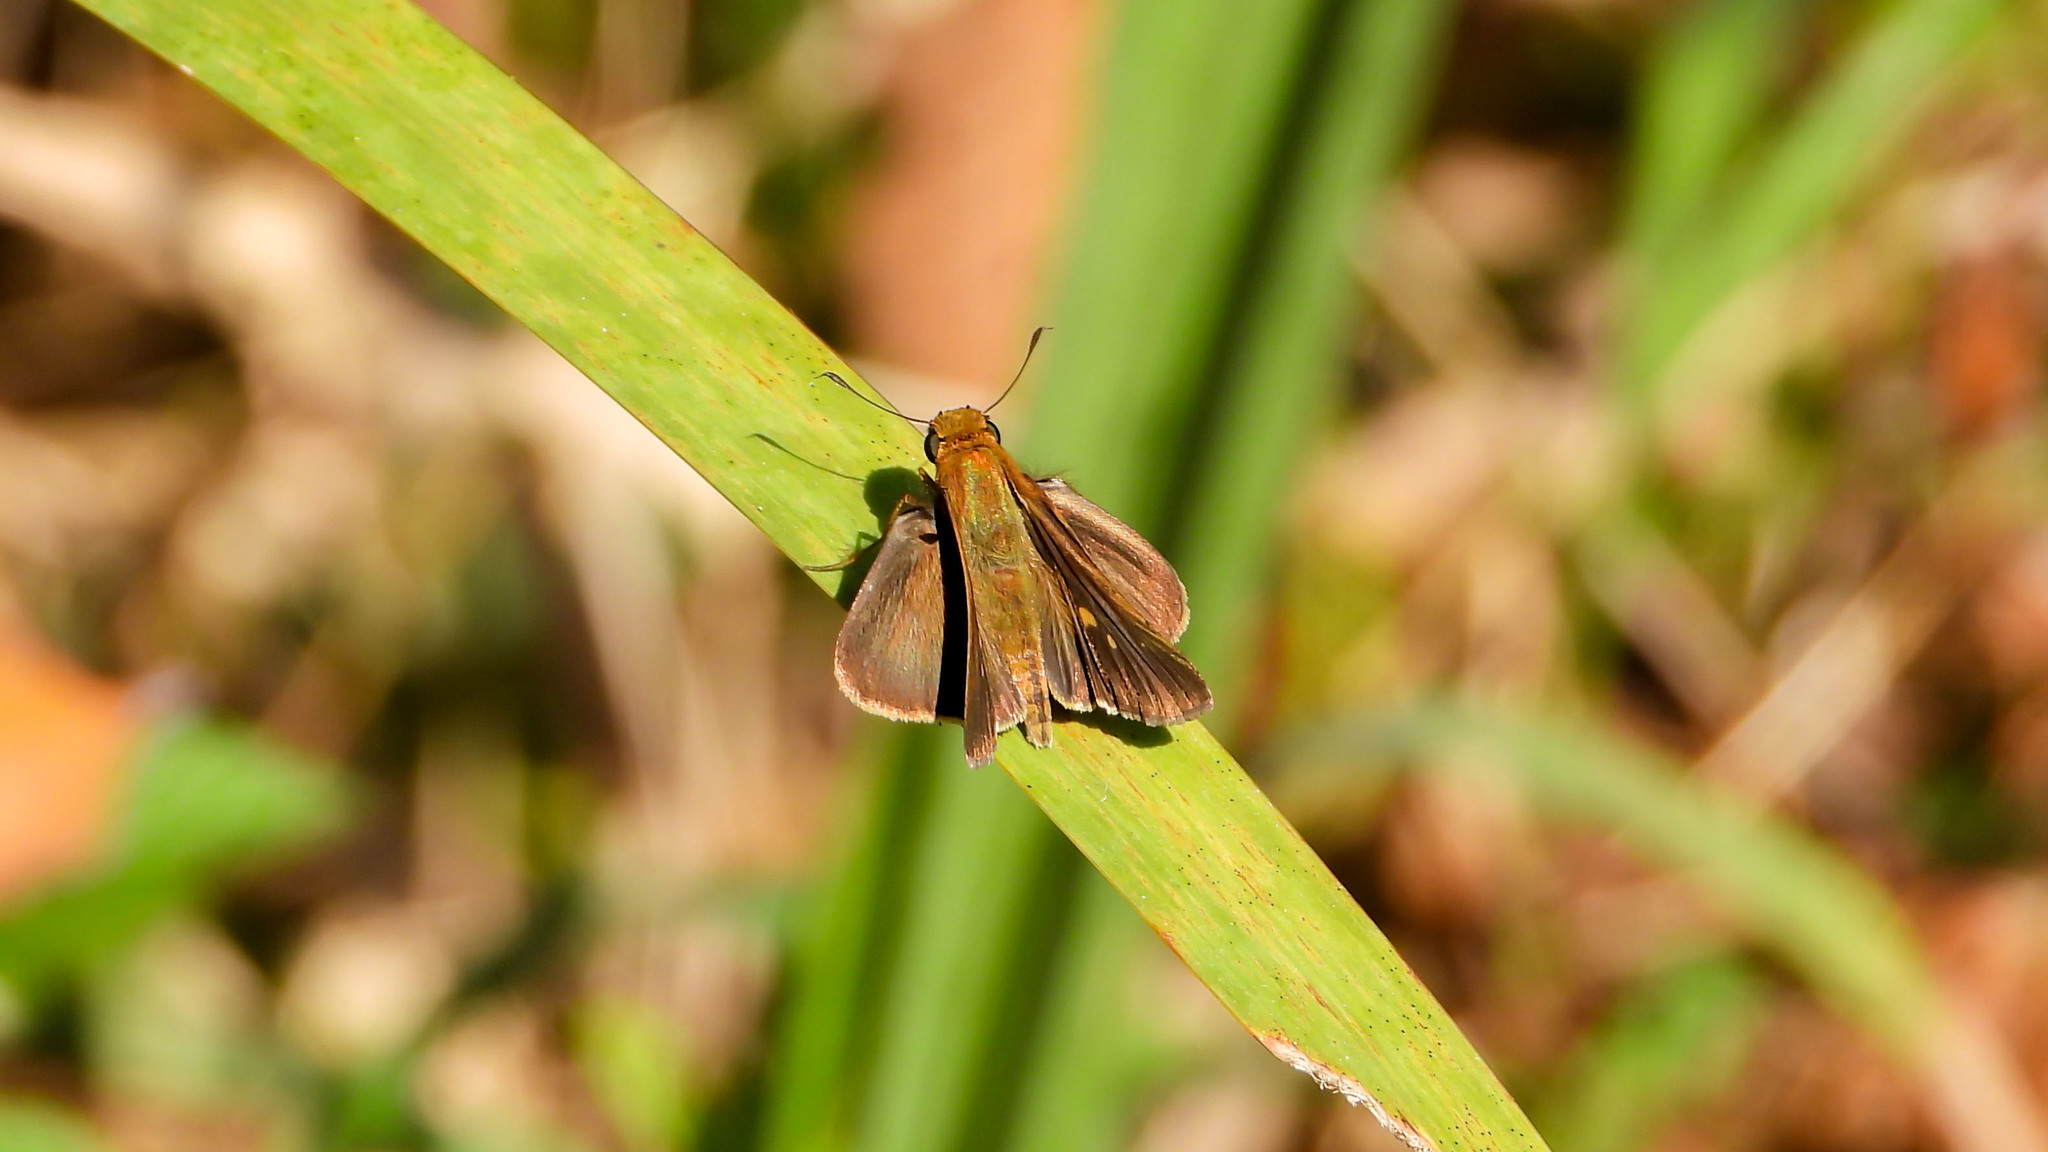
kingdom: Animalia
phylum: Arthropoda
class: Insecta
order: Lepidoptera
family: Hesperiidae
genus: Panoquina
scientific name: Panoquina ocola
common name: Ocola skipper
